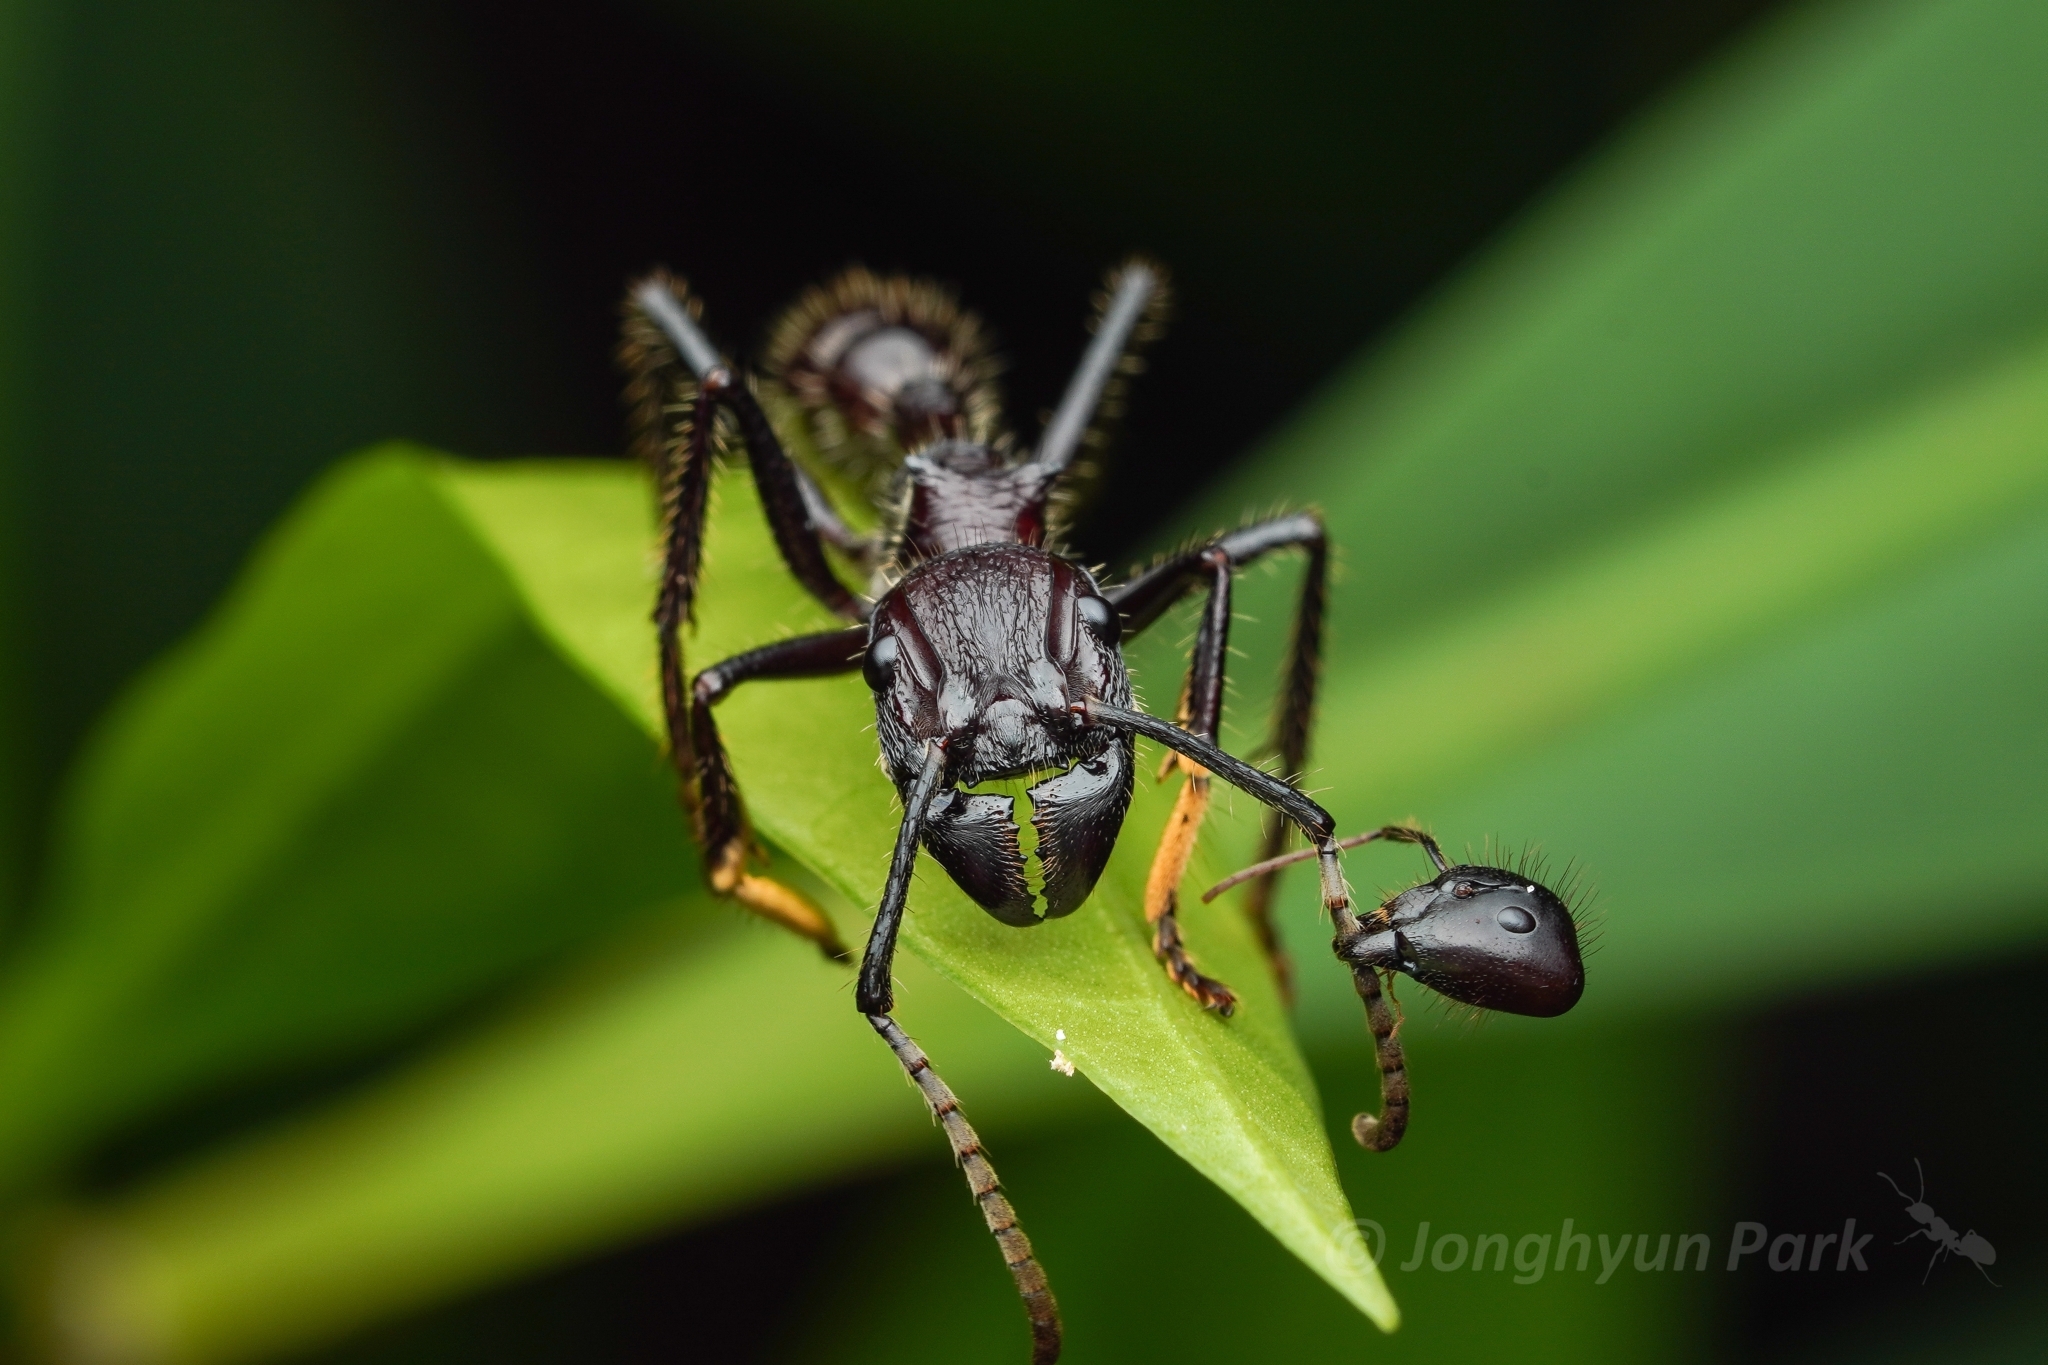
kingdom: Animalia
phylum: Arthropoda
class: Insecta
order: Hymenoptera
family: Formicidae
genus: Paraponera
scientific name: Paraponera clavata
